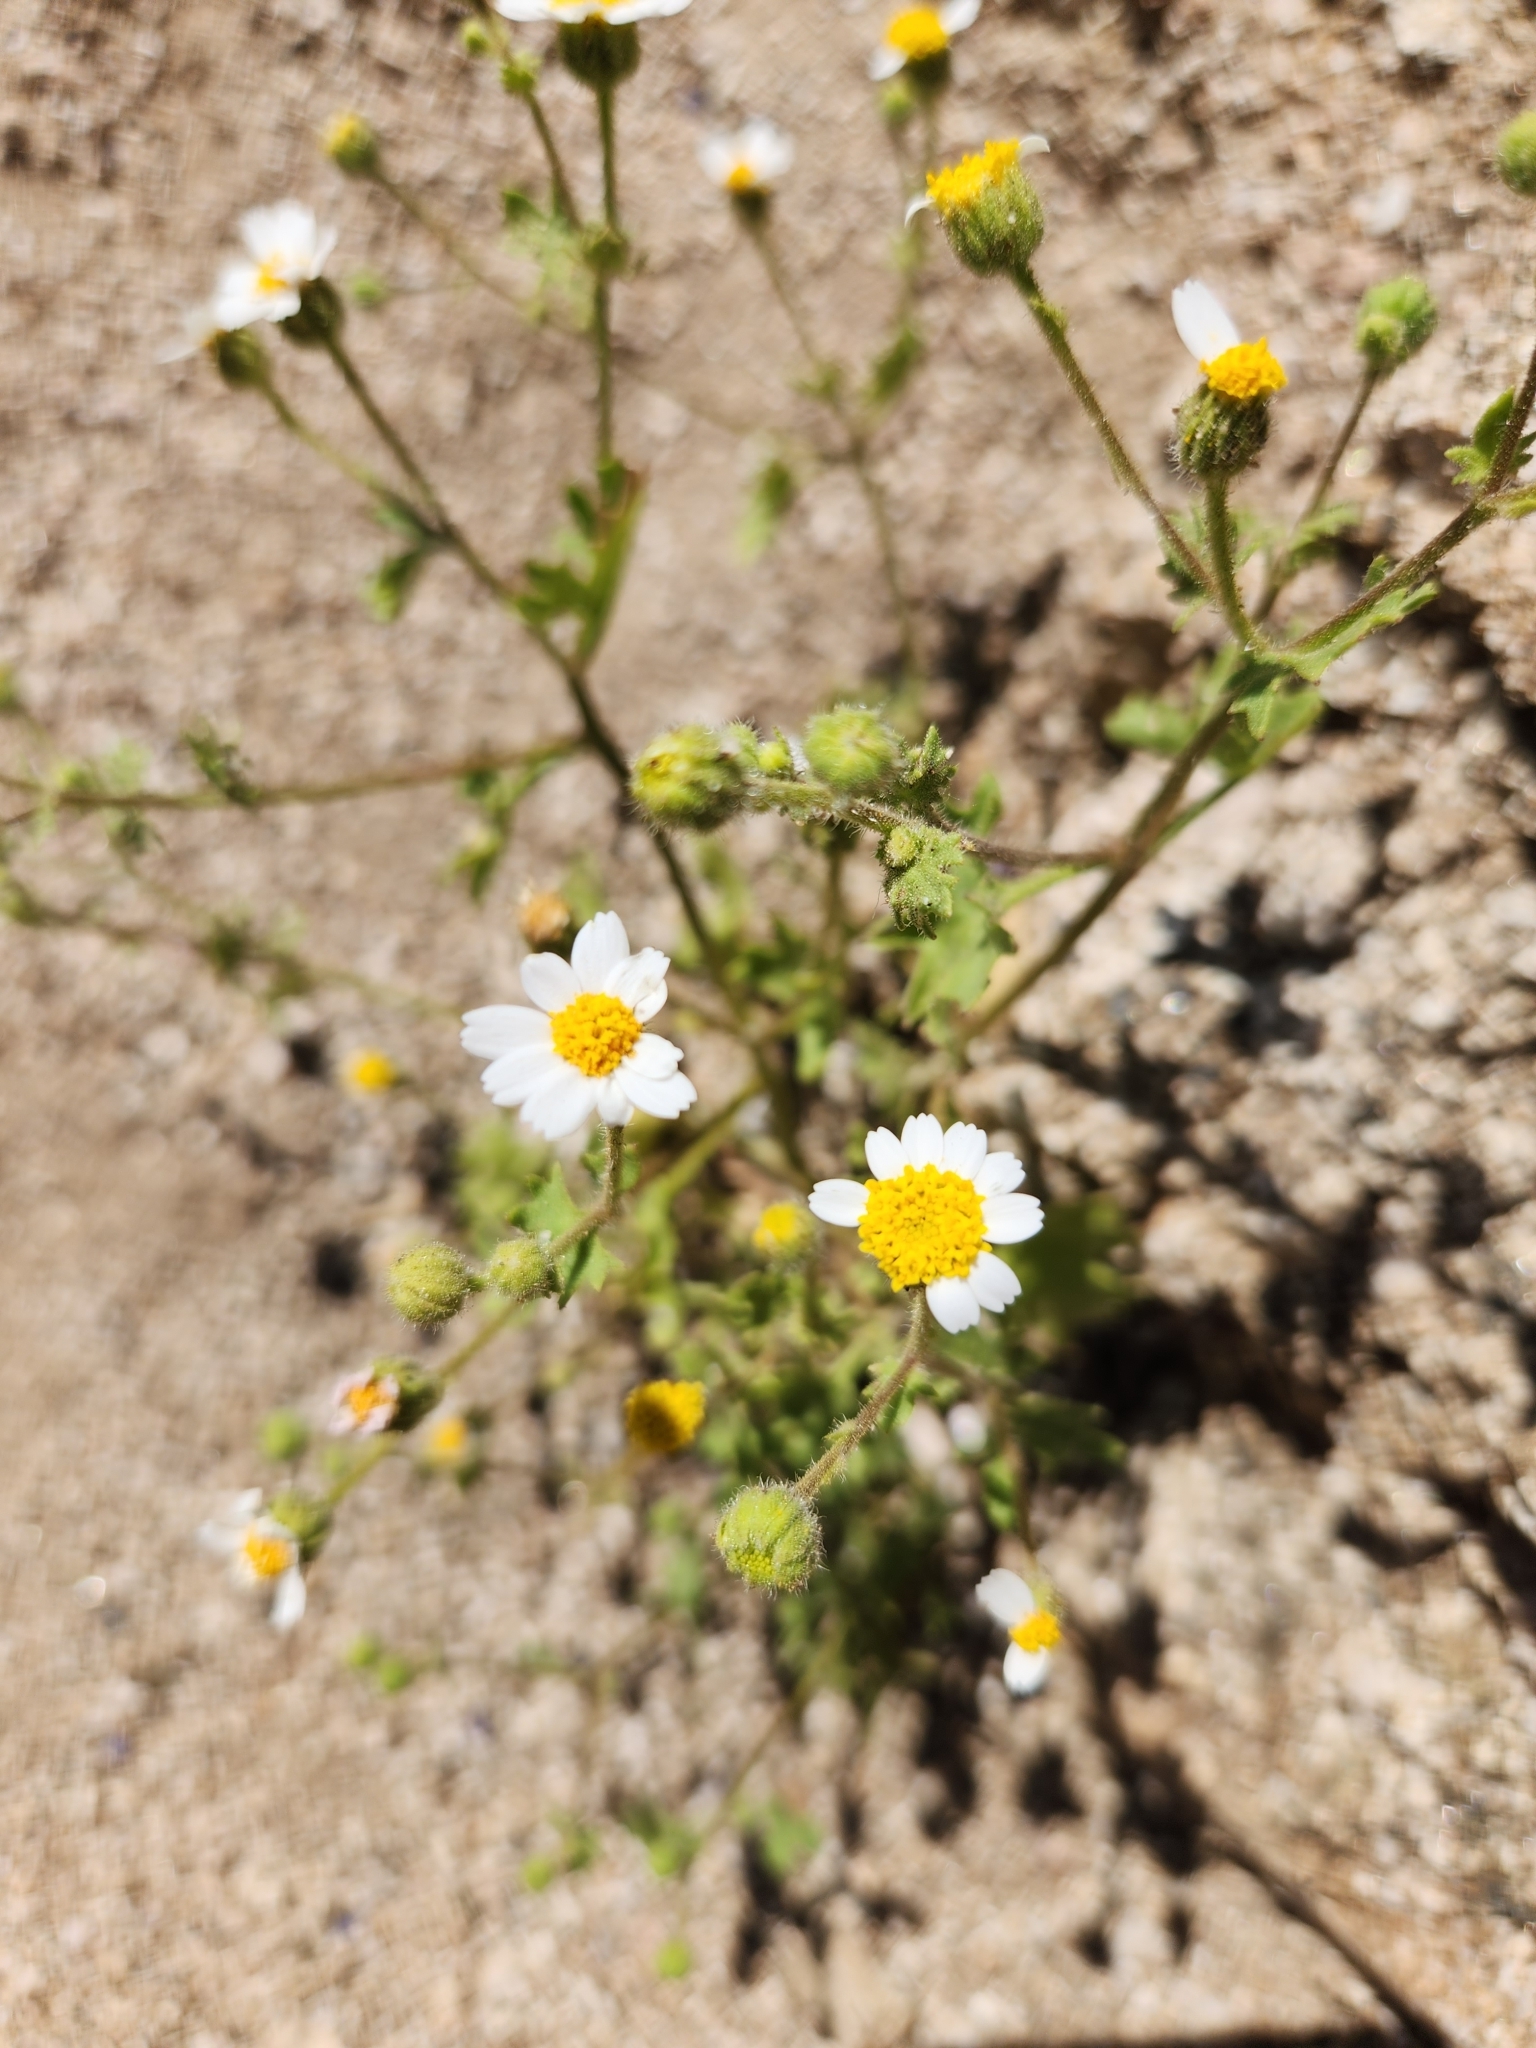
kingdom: Plantae
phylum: Tracheophyta
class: Magnoliopsida
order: Asterales
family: Asteraceae
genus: Laphamia
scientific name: Laphamia emoryi
